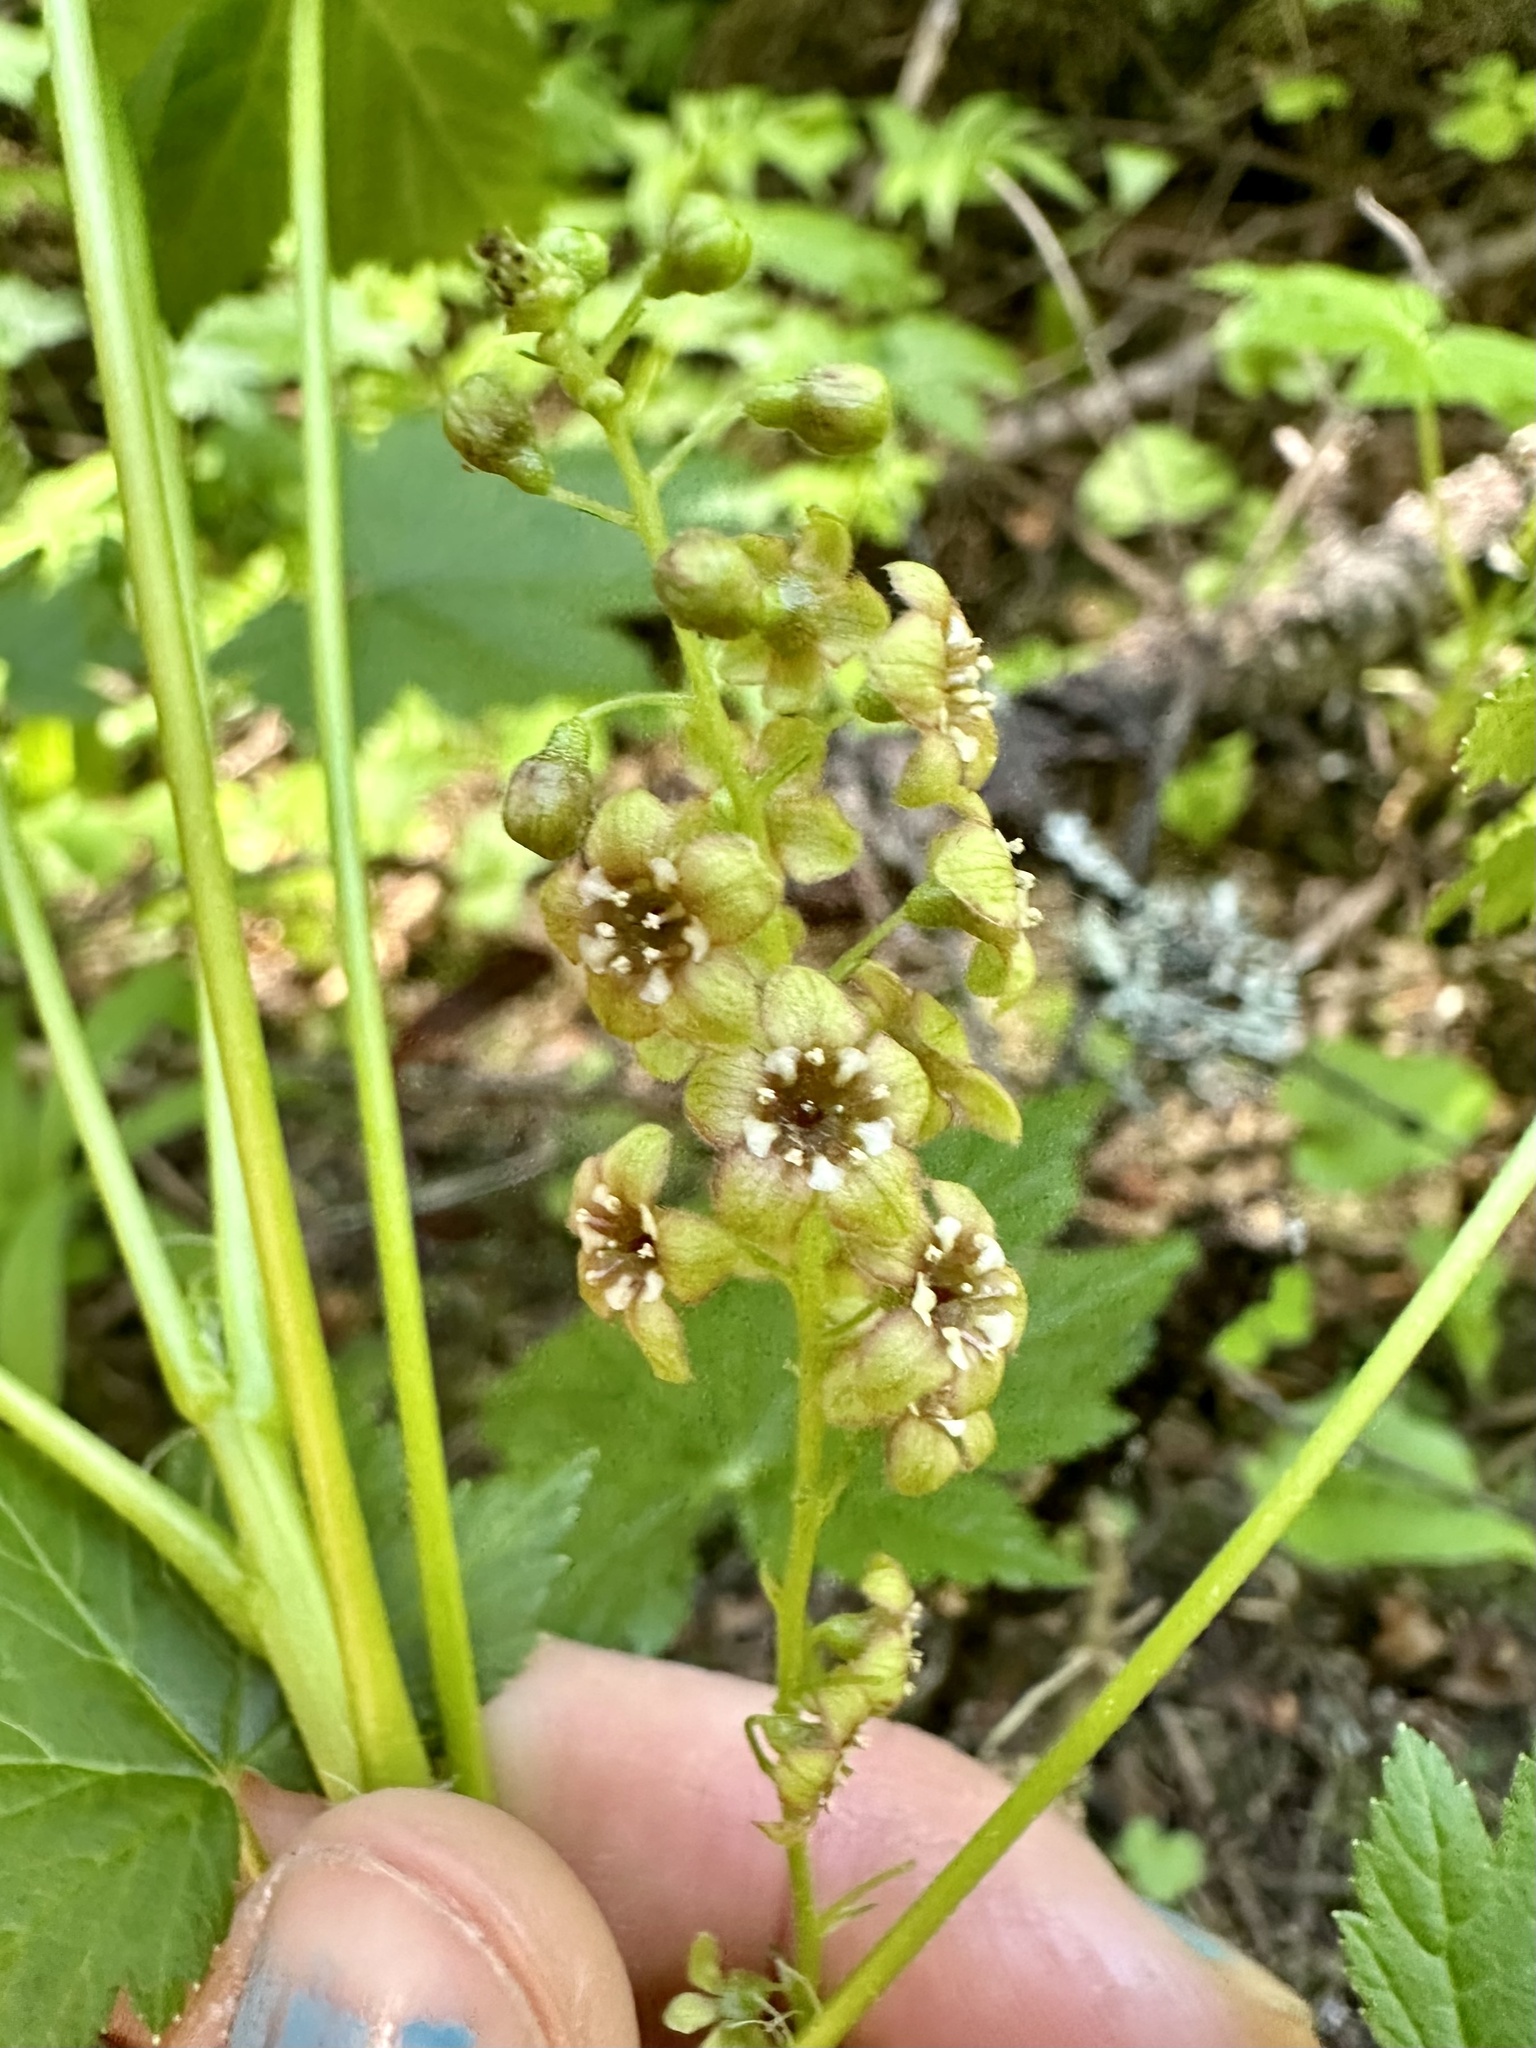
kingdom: Plantae
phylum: Tracheophyta
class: Magnoliopsida
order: Saxifragales
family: Grossulariaceae
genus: Ribes
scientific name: Ribes bracteosum
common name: California black currant
